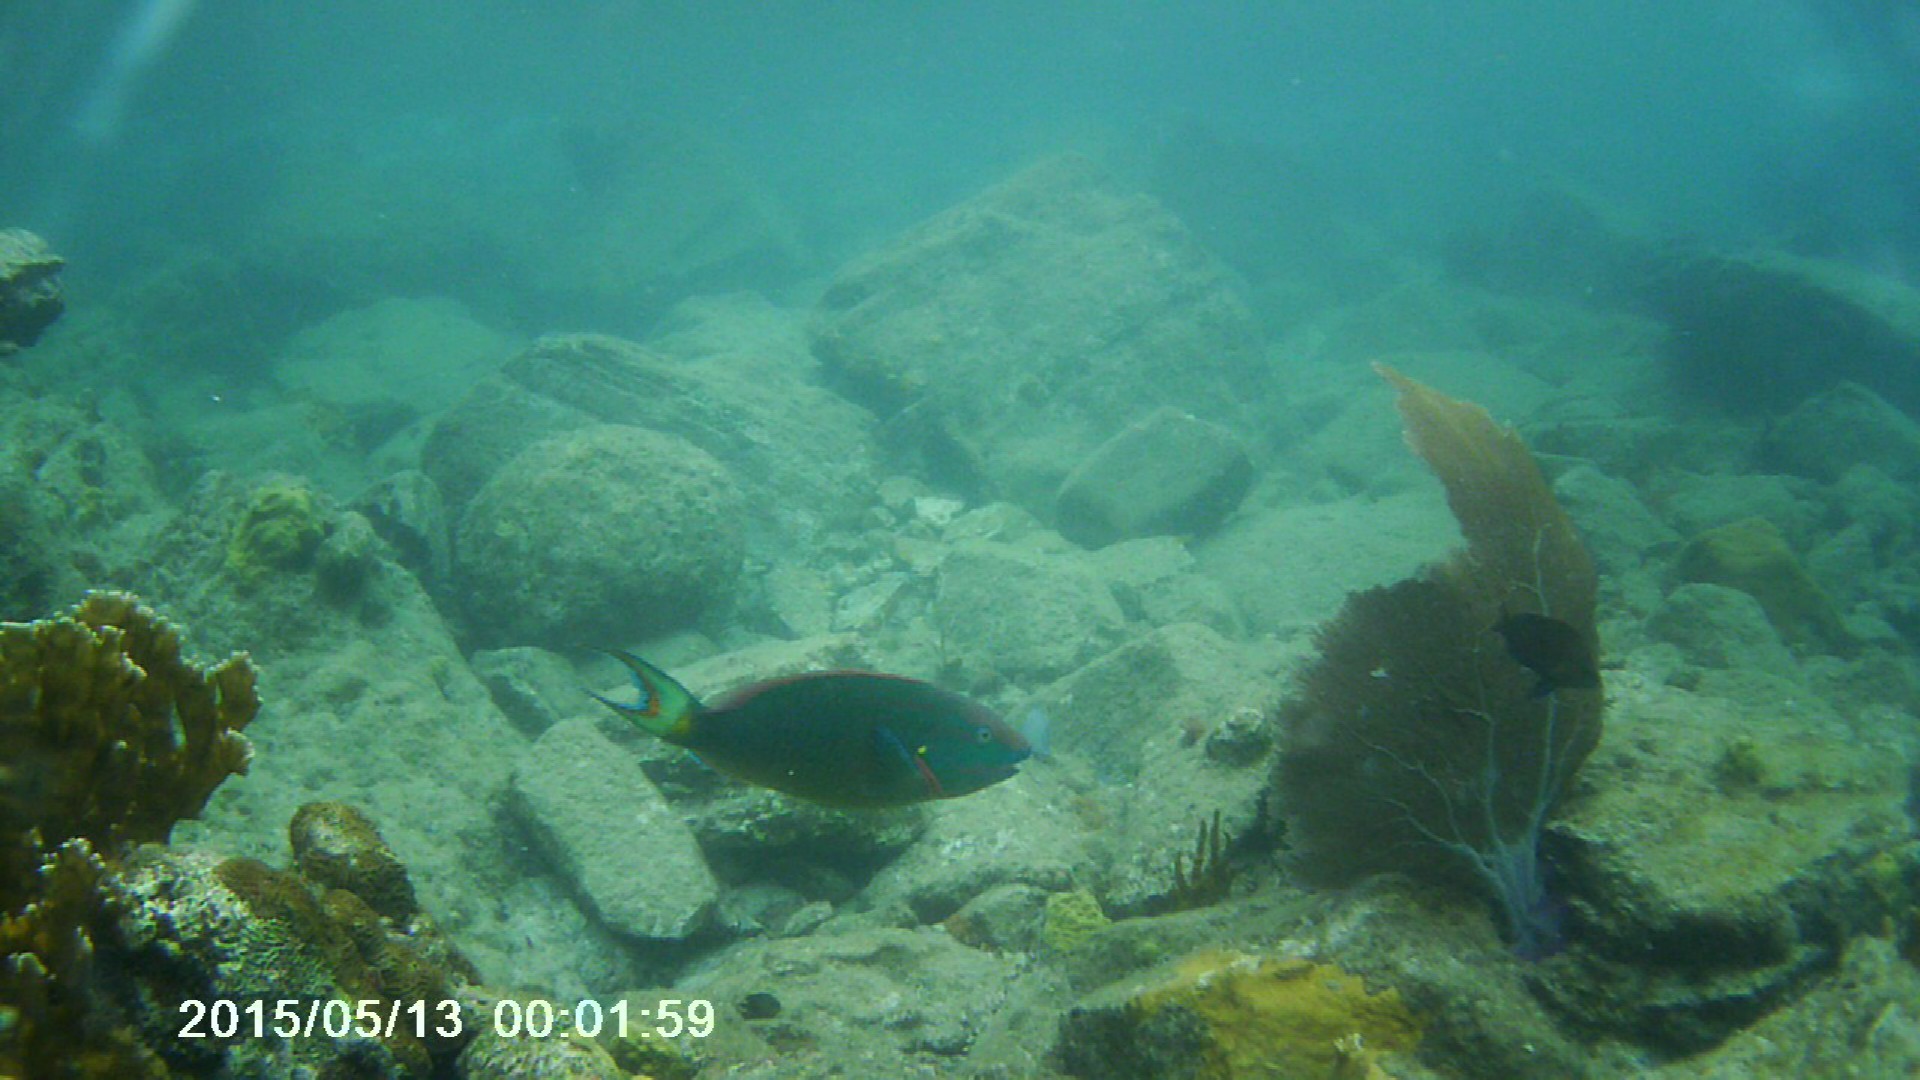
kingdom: Animalia
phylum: Chordata
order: Perciformes
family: Scaridae
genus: Sparisoma
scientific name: Sparisoma viride
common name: Stoplight parrotfish
